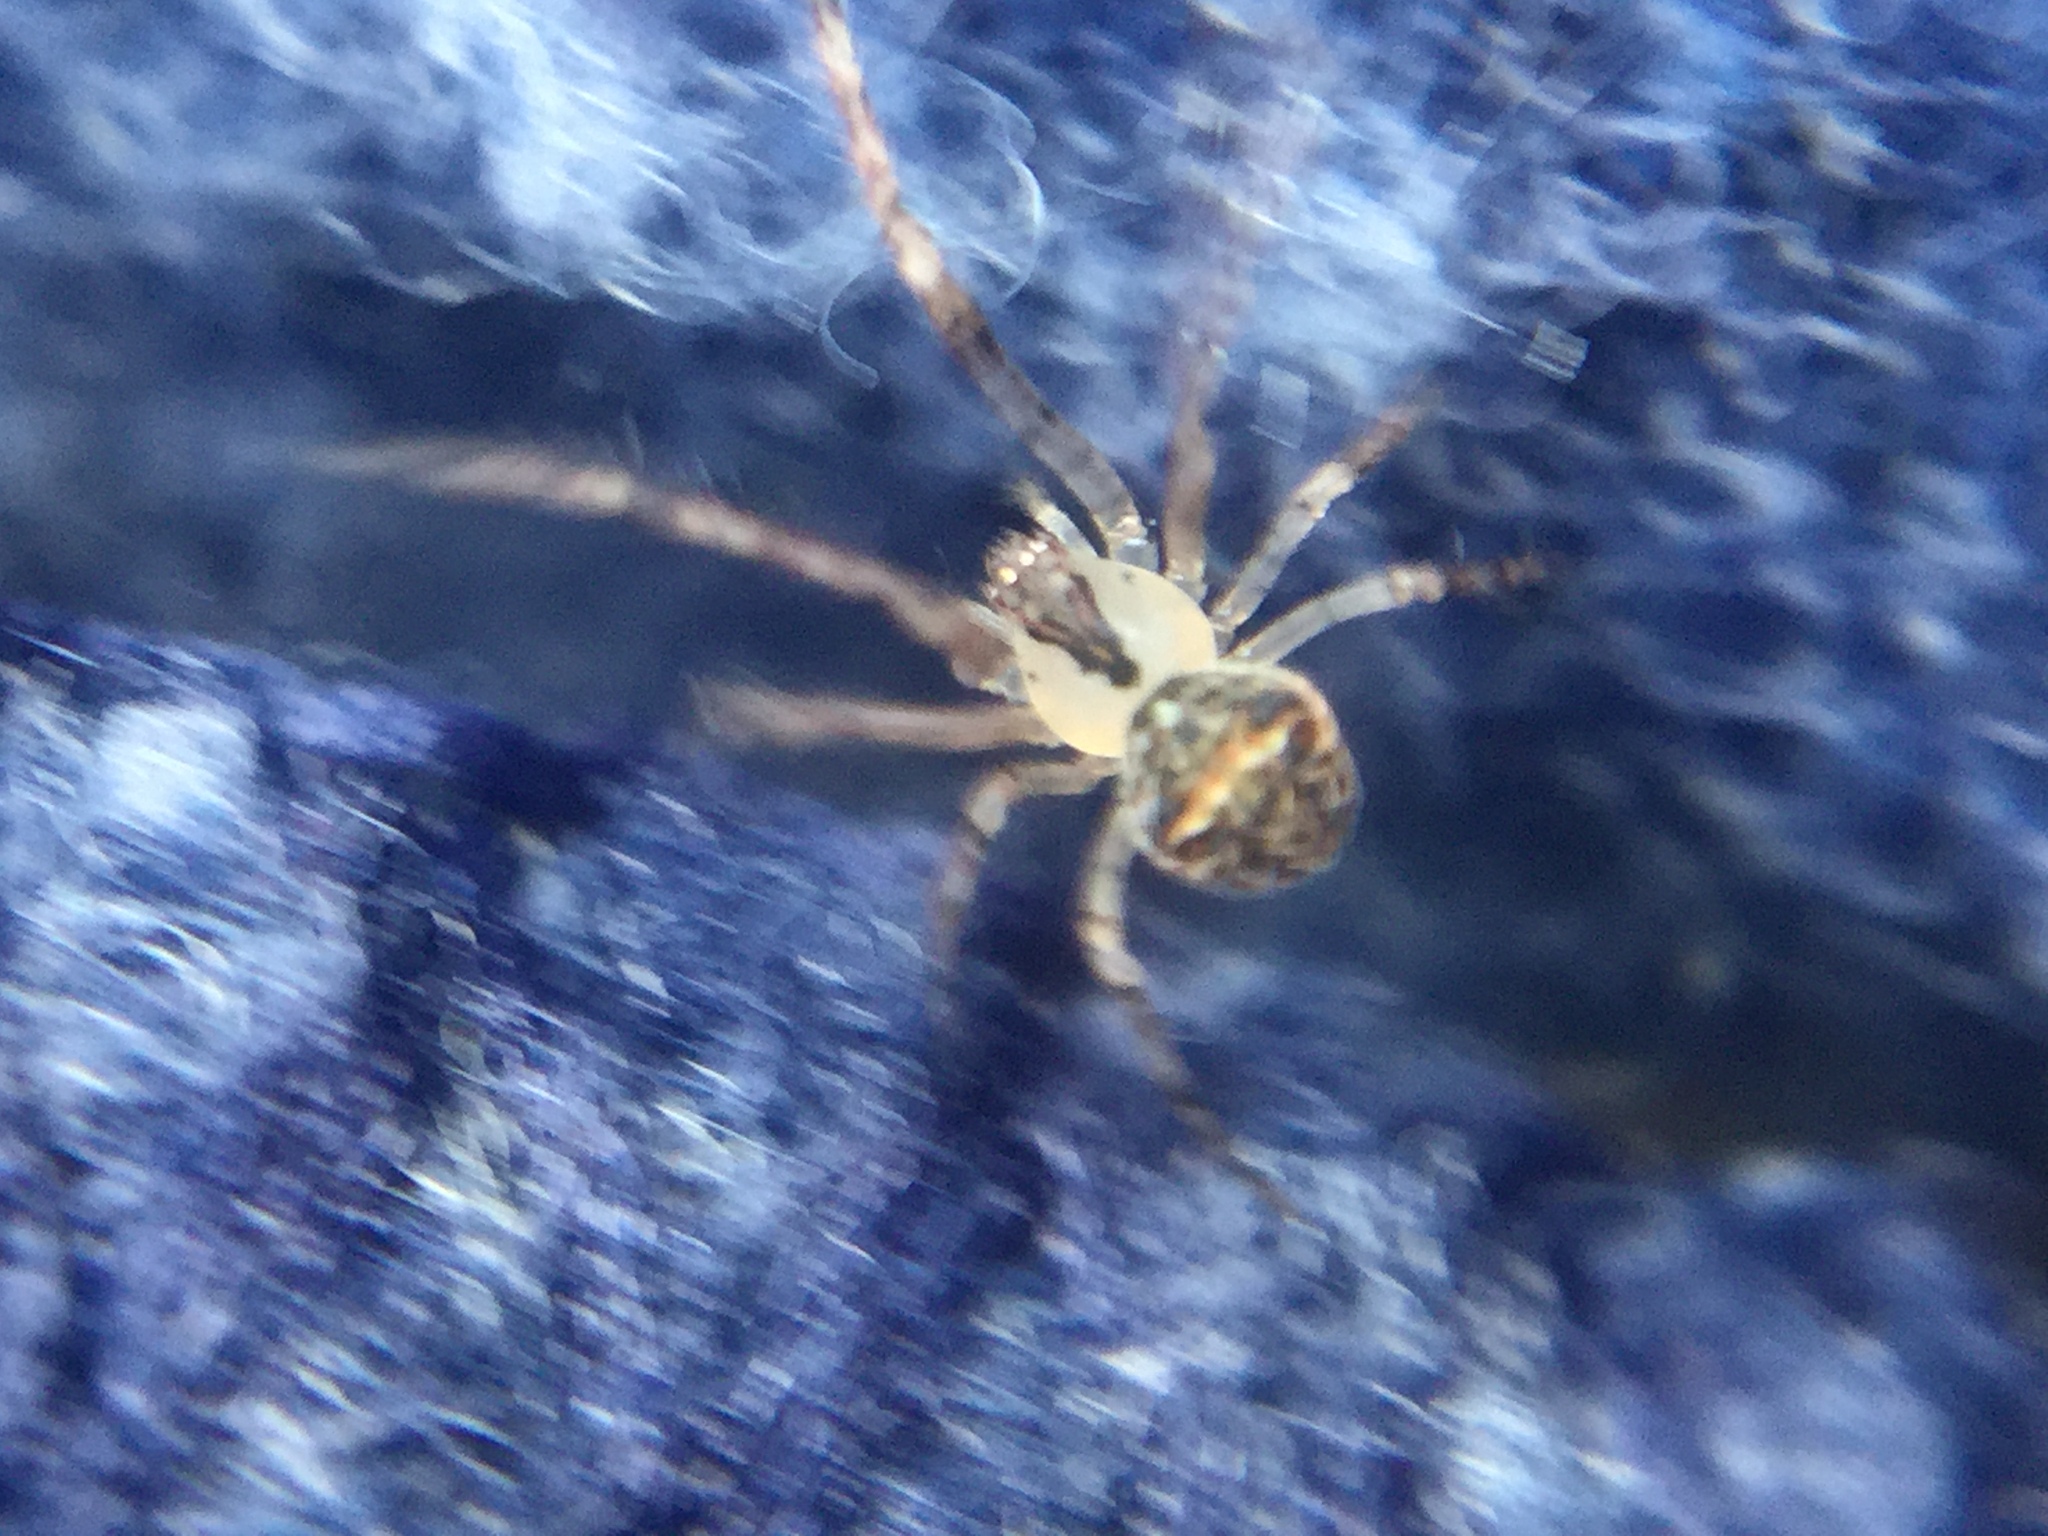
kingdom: Animalia
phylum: Arthropoda
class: Arachnida
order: Araneae
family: Mimetidae
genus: Mimetus
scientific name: Mimetus puritanus
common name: Common pirate spider
